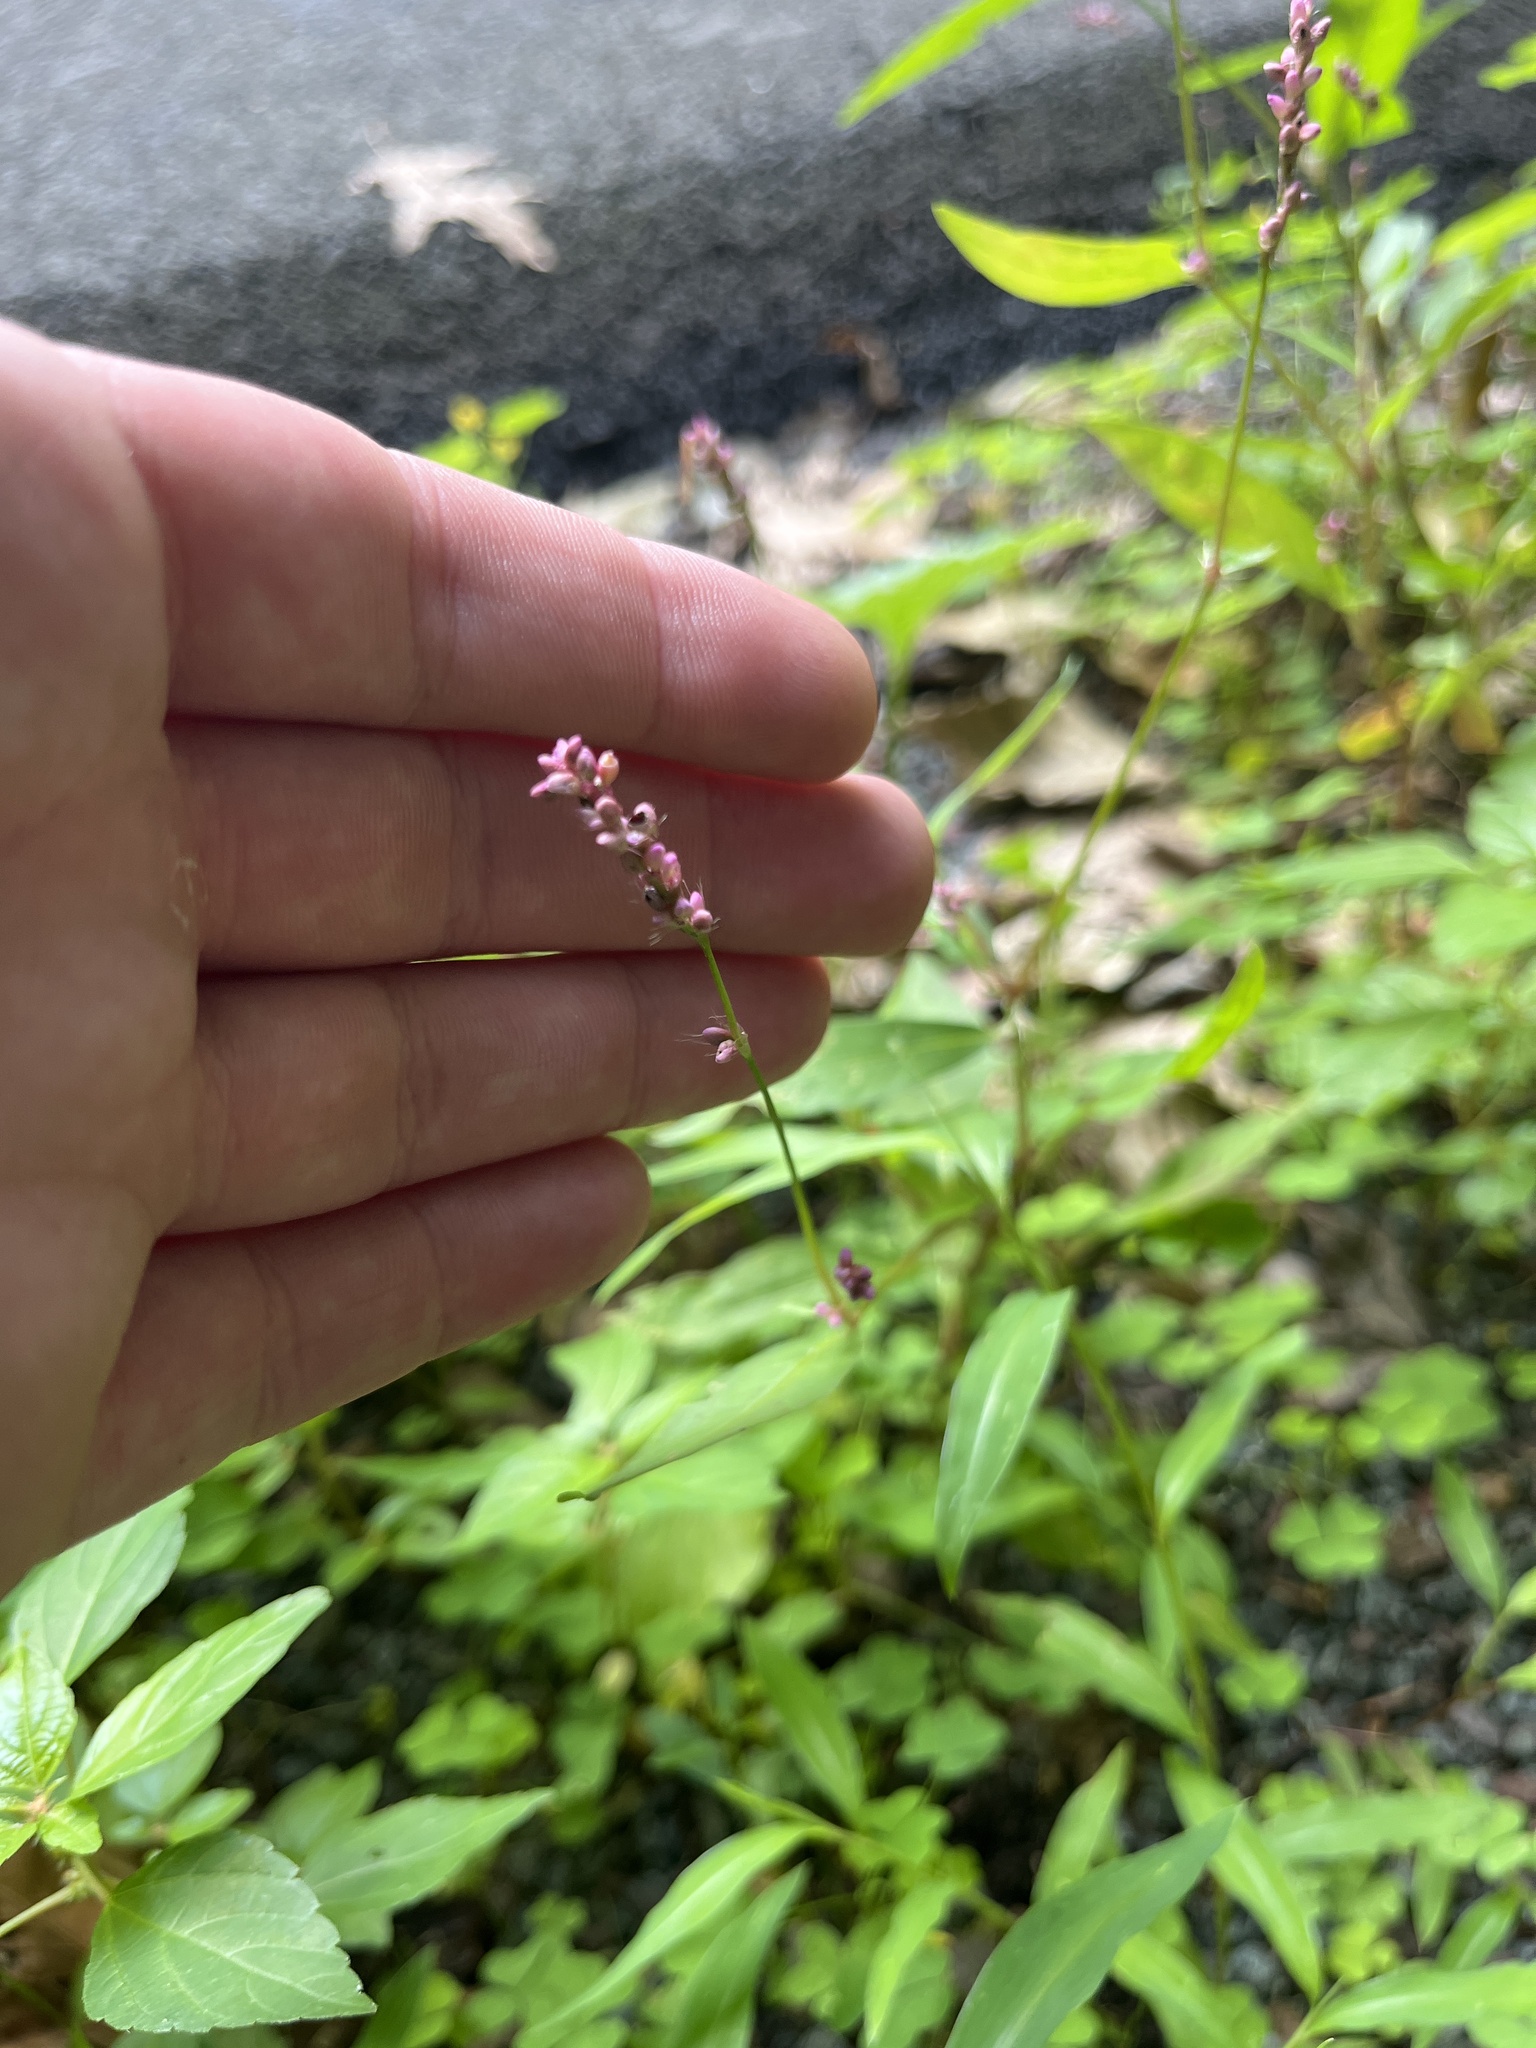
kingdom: Plantae
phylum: Tracheophyta
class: Magnoliopsida
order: Caryophyllales
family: Polygonaceae
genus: Persicaria
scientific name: Persicaria longiseta
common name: Bristly lady's-thumb
